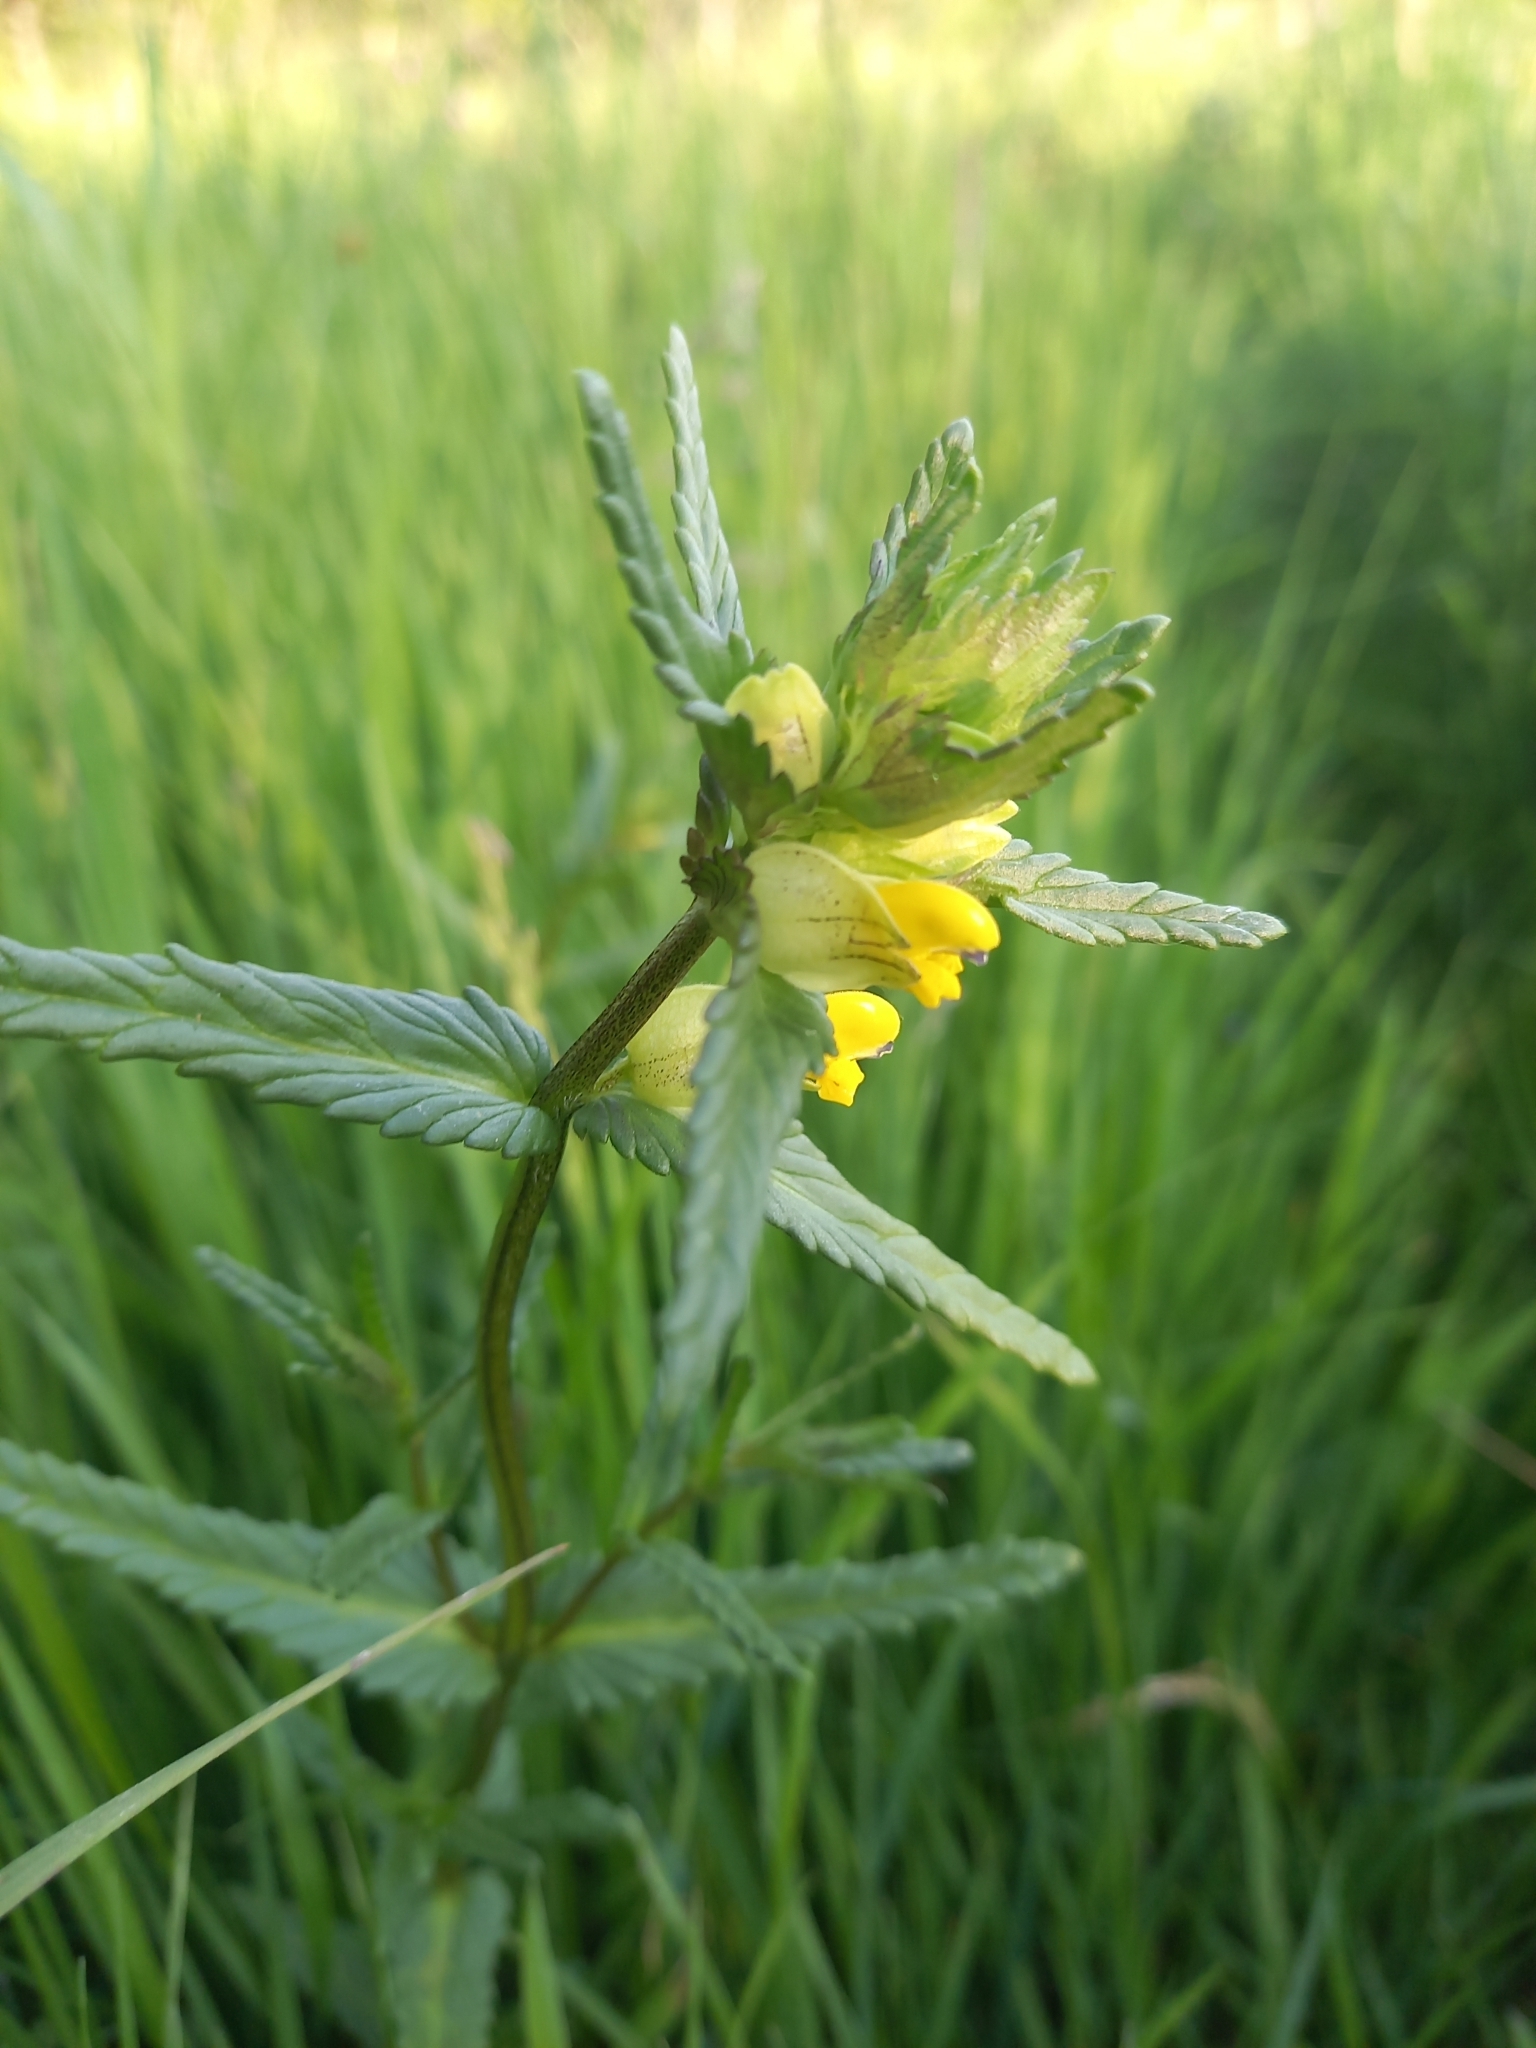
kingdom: Plantae
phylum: Tracheophyta
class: Magnoliopsida
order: Lamiales
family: Orobanchaceae
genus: Rhinanthus
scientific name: Rhinanthus minor
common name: Yellow-rattle
